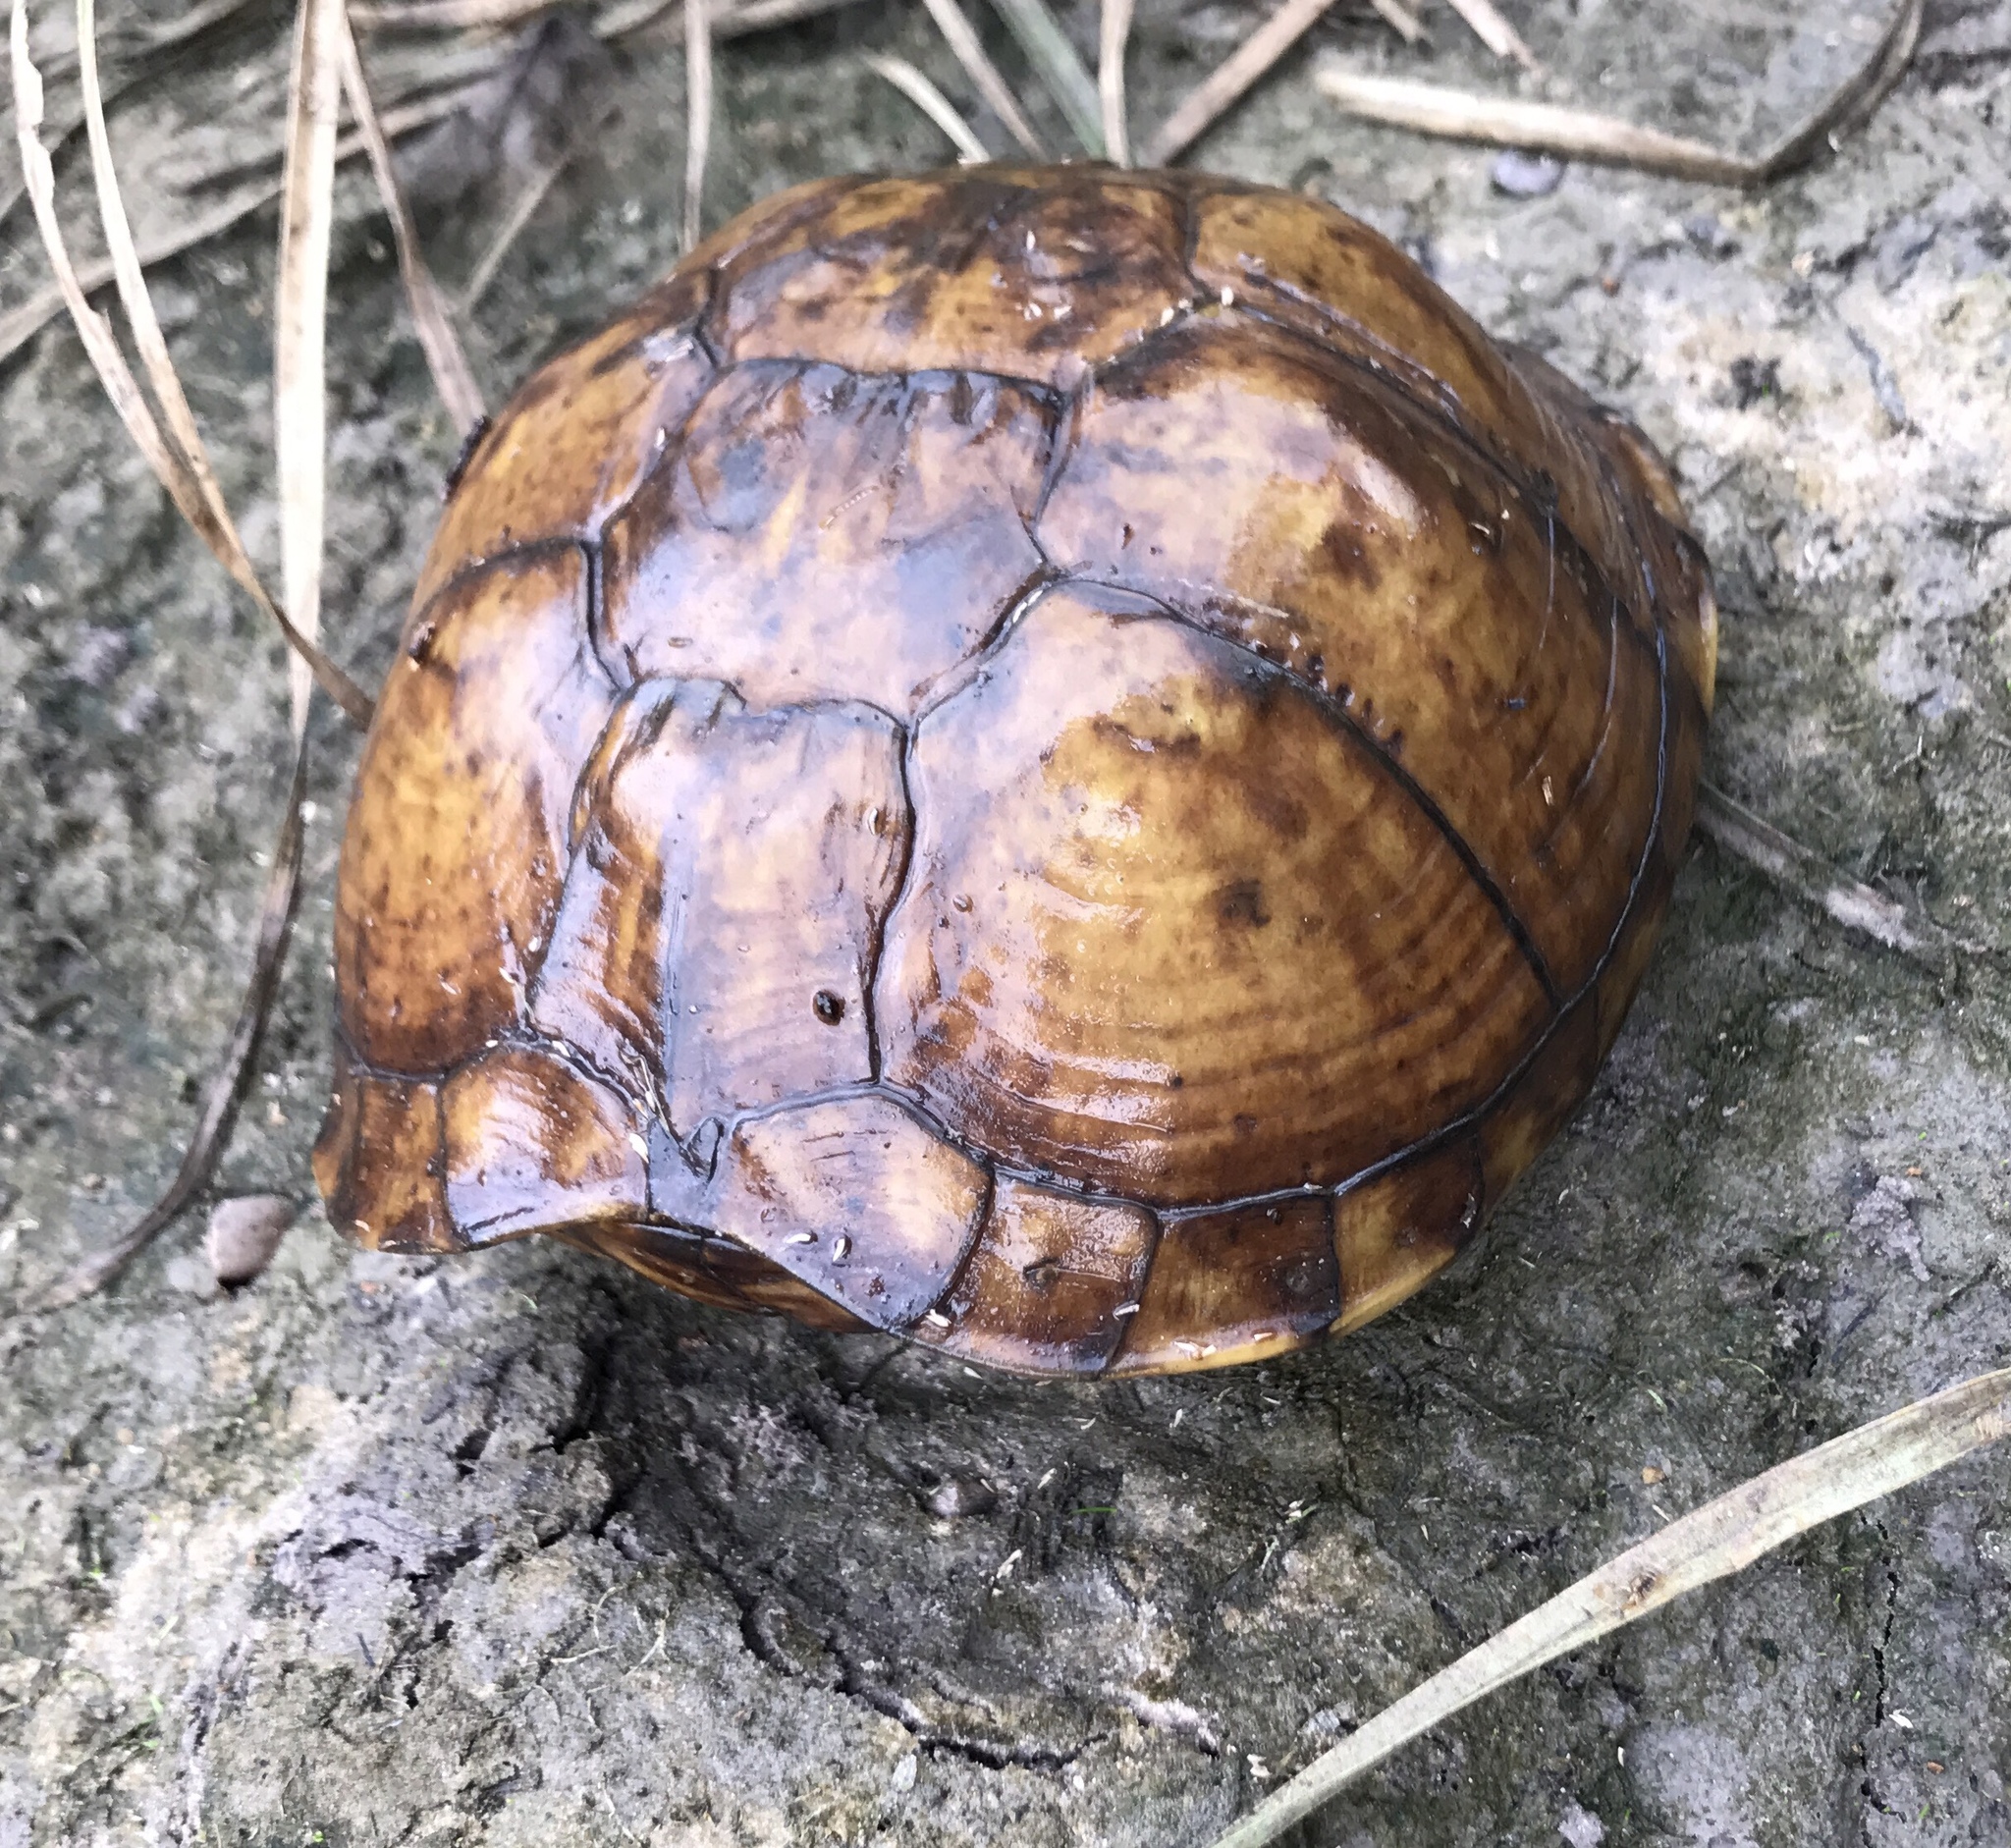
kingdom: Animalia
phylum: Chordata
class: Testudines
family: Emydidae
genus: Terrapene
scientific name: Terrapene carolina
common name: Common box turtle
